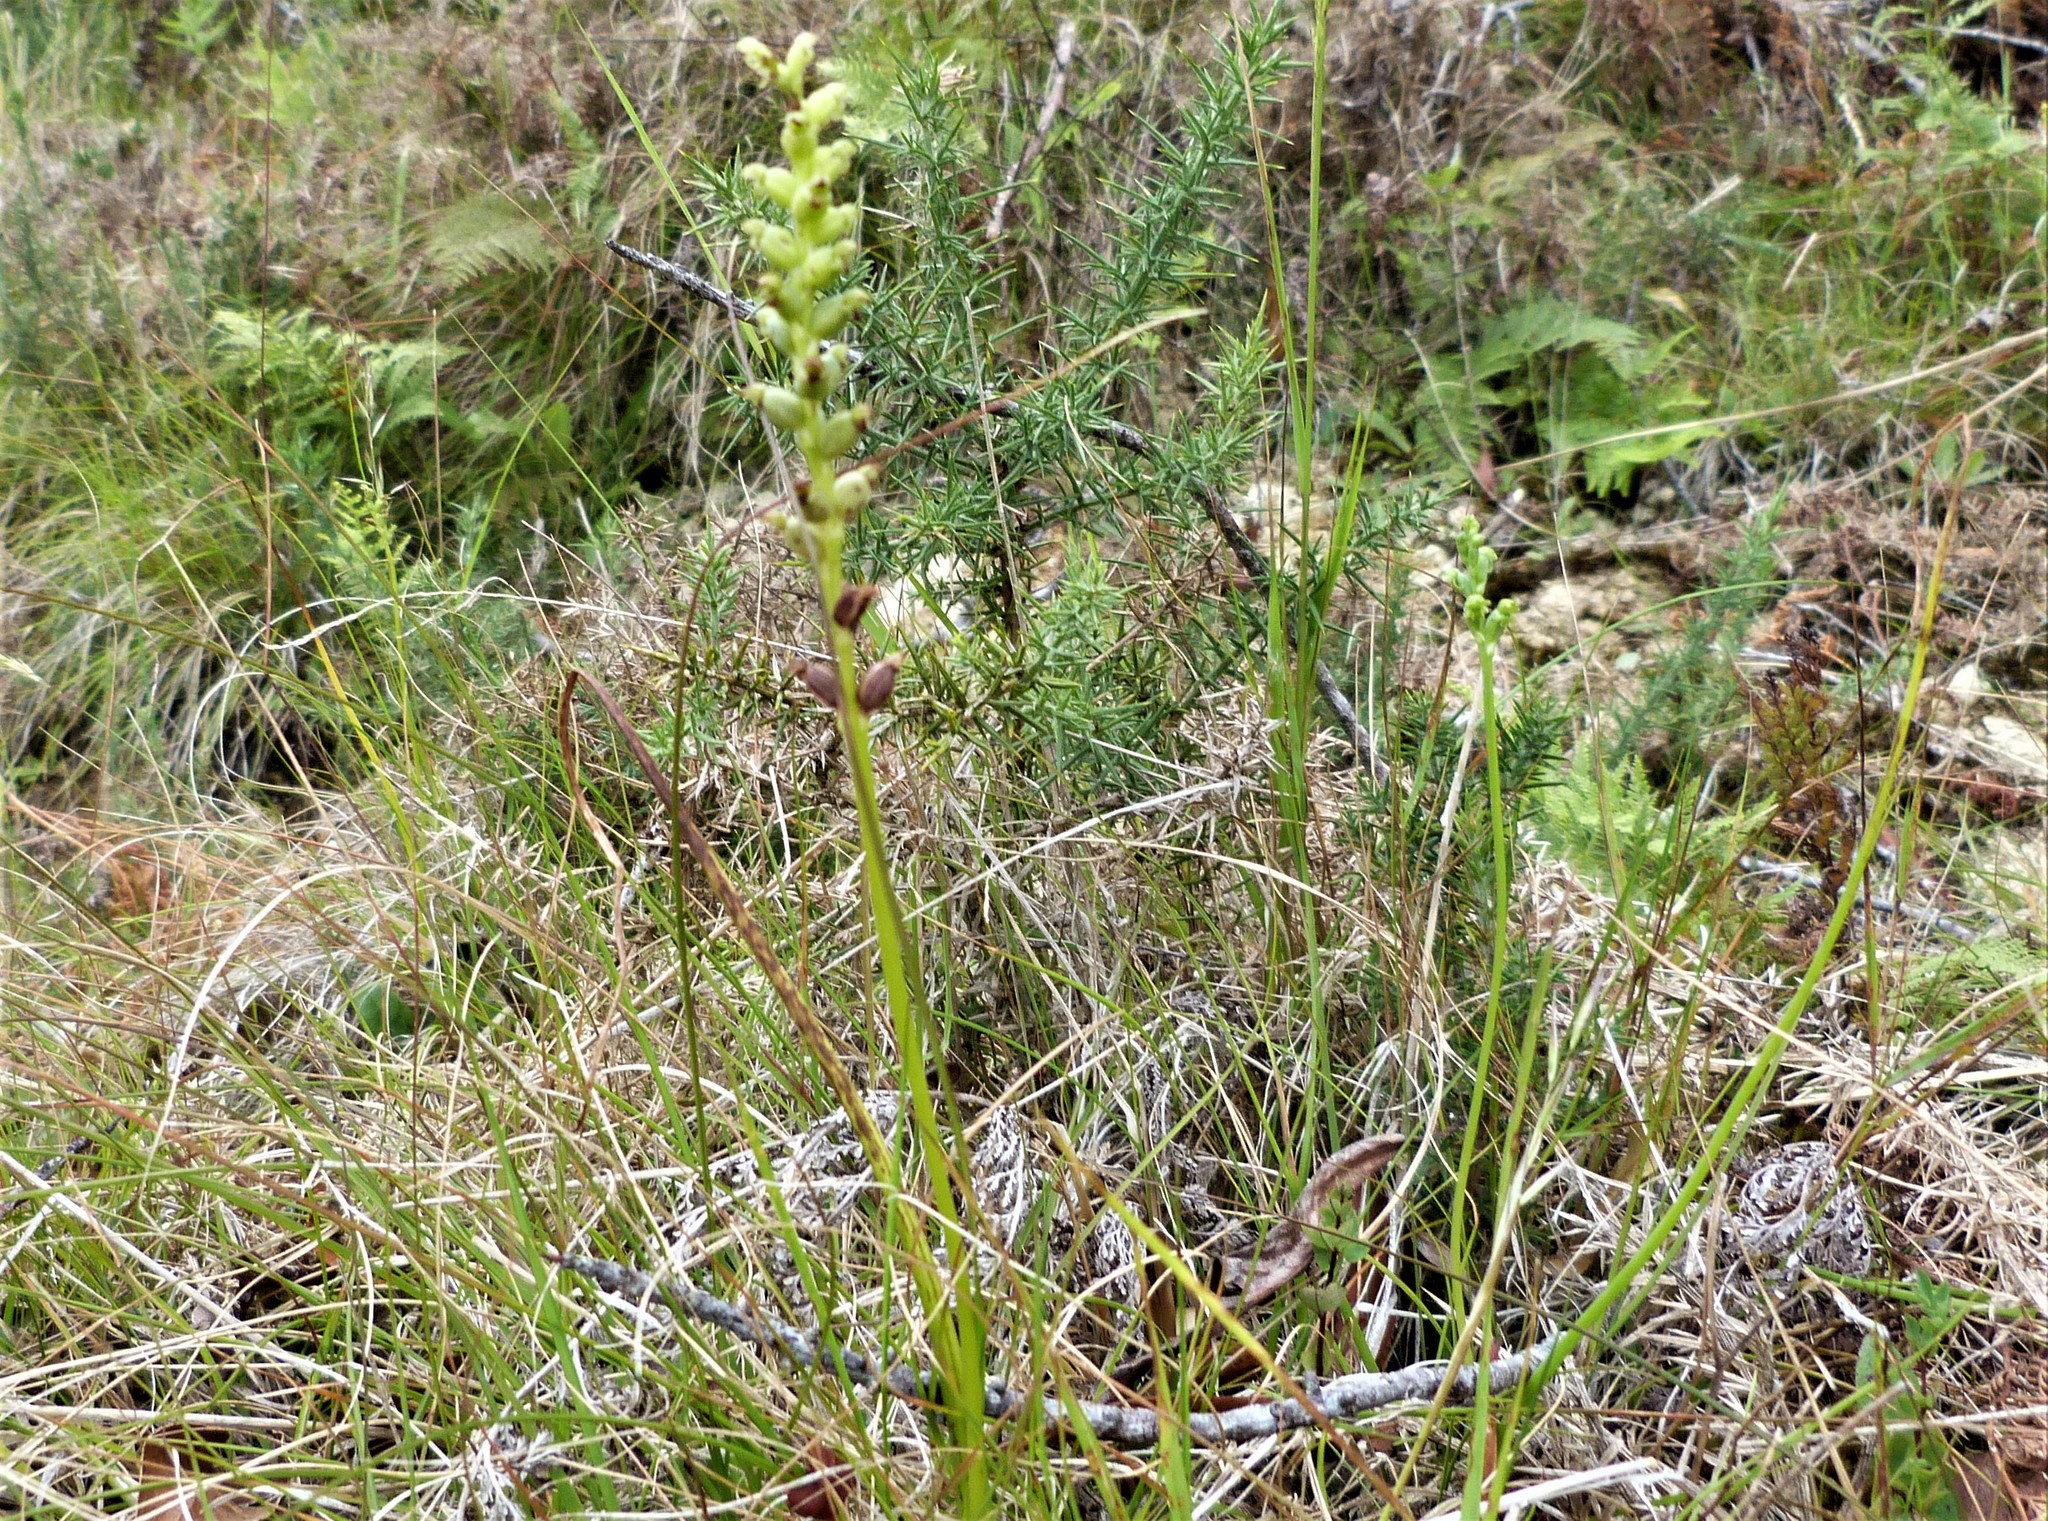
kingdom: Plantae
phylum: Tracheophyta
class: Liliopsida
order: Asparagales
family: Orchidaceae
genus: Microtis
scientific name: Microtis unifolia
